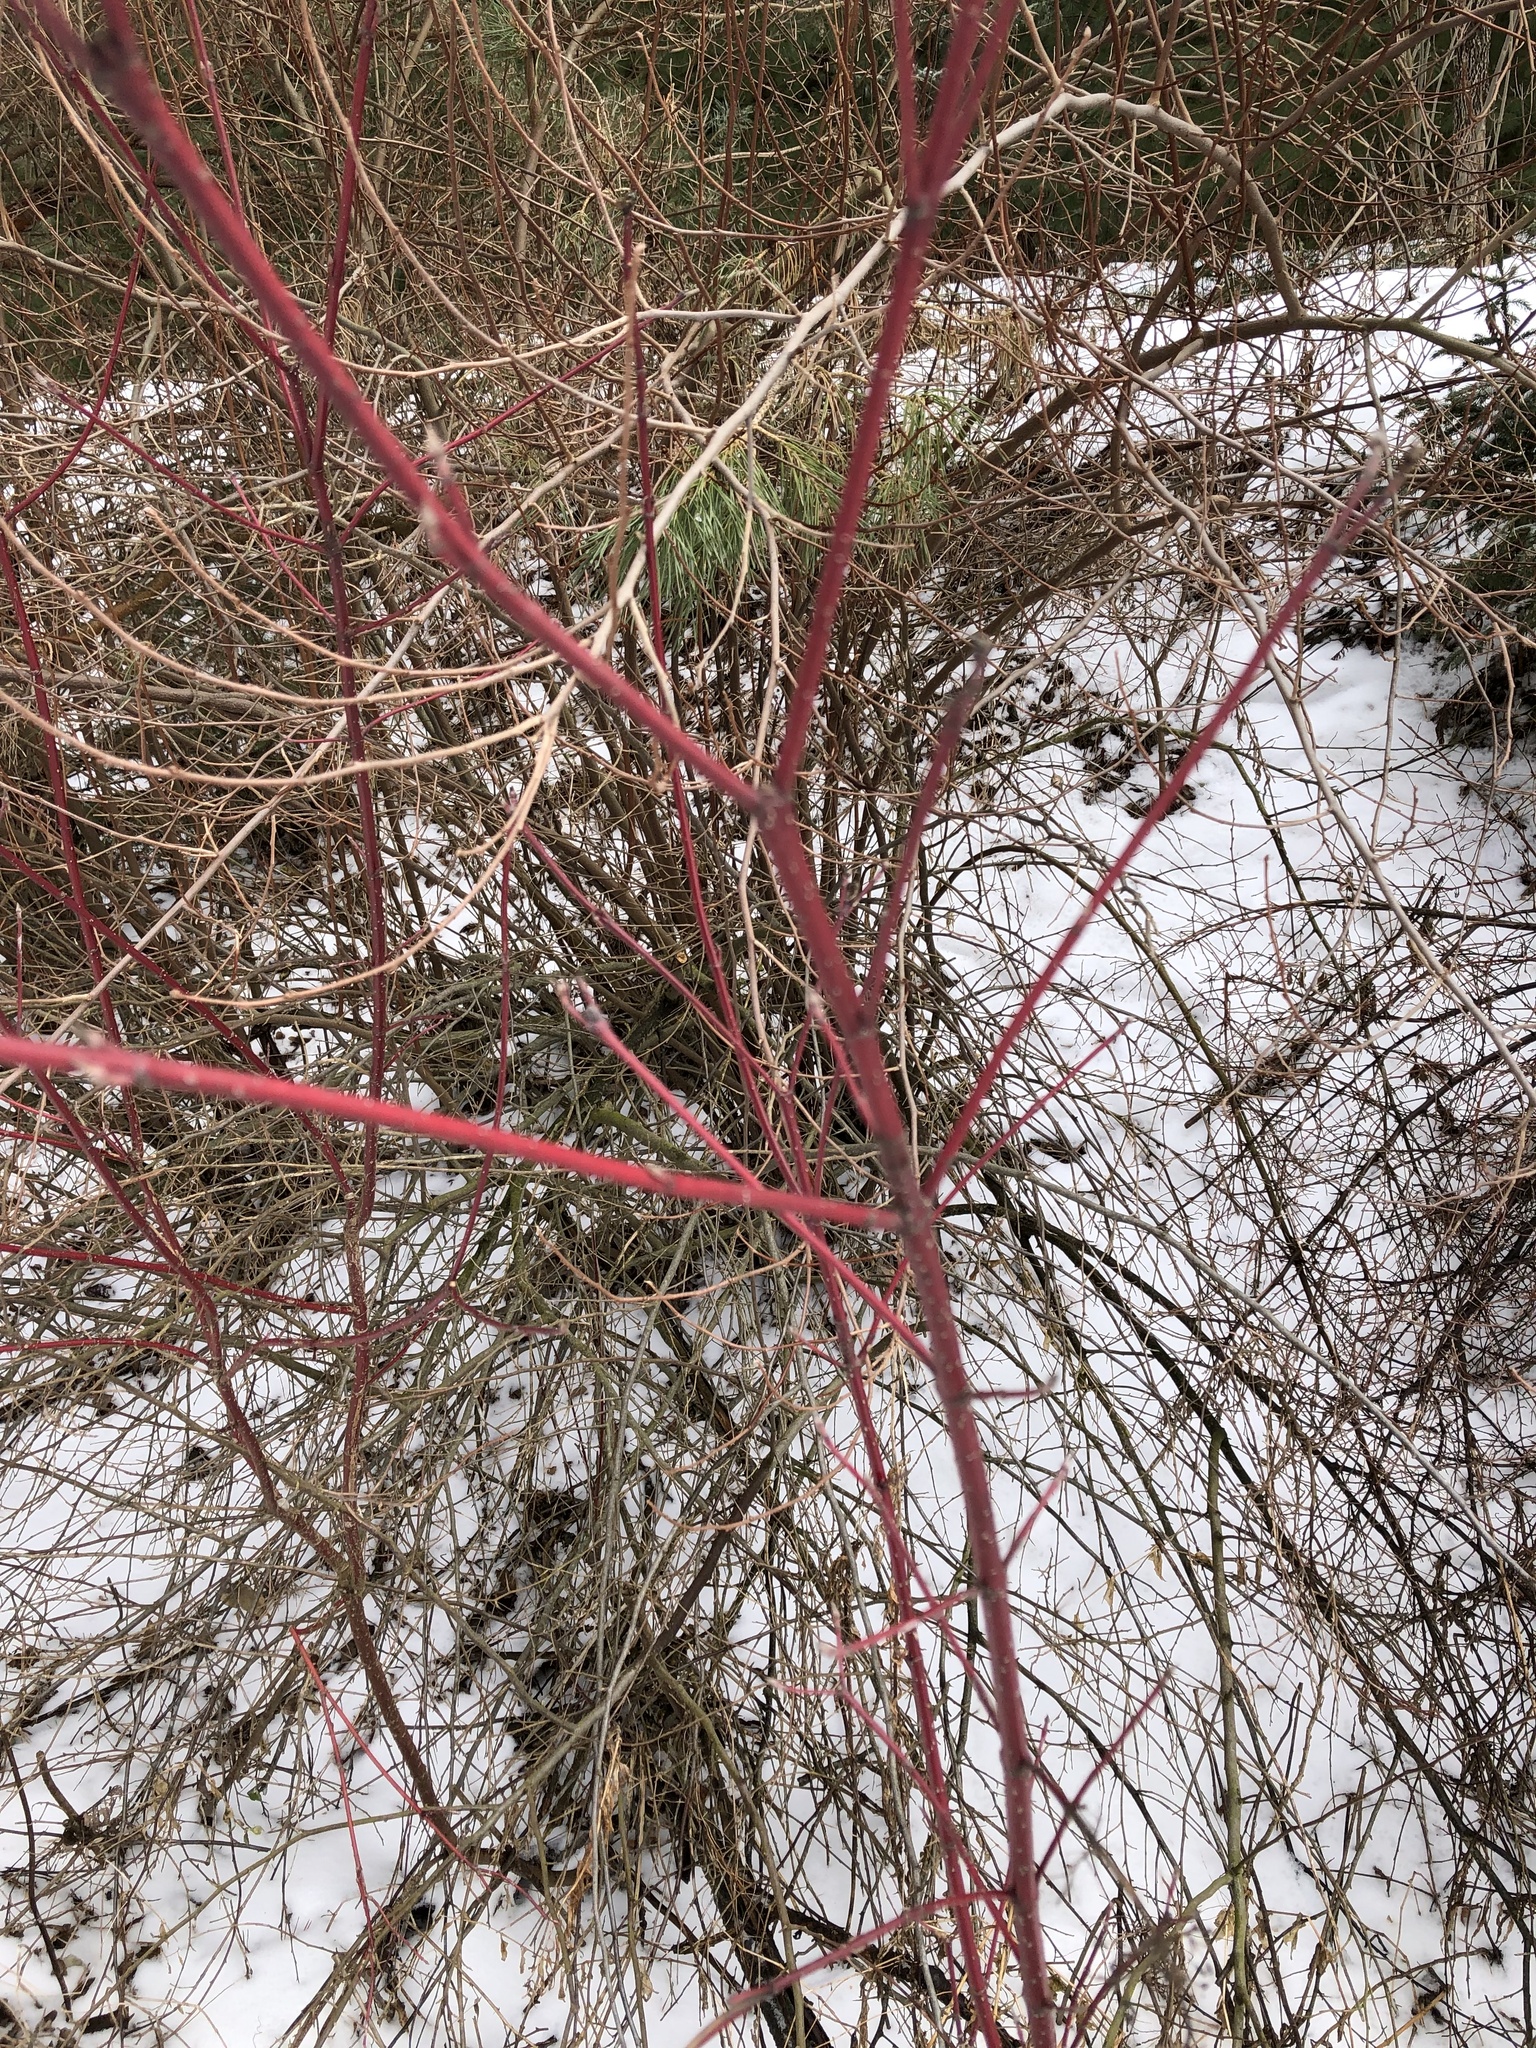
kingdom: Plantae
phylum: Tracheophyta
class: Magnoliopsida
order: Cornales
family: Cornaceae
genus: Cornus
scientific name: Cornus sericea
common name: Red-osier dogwood
